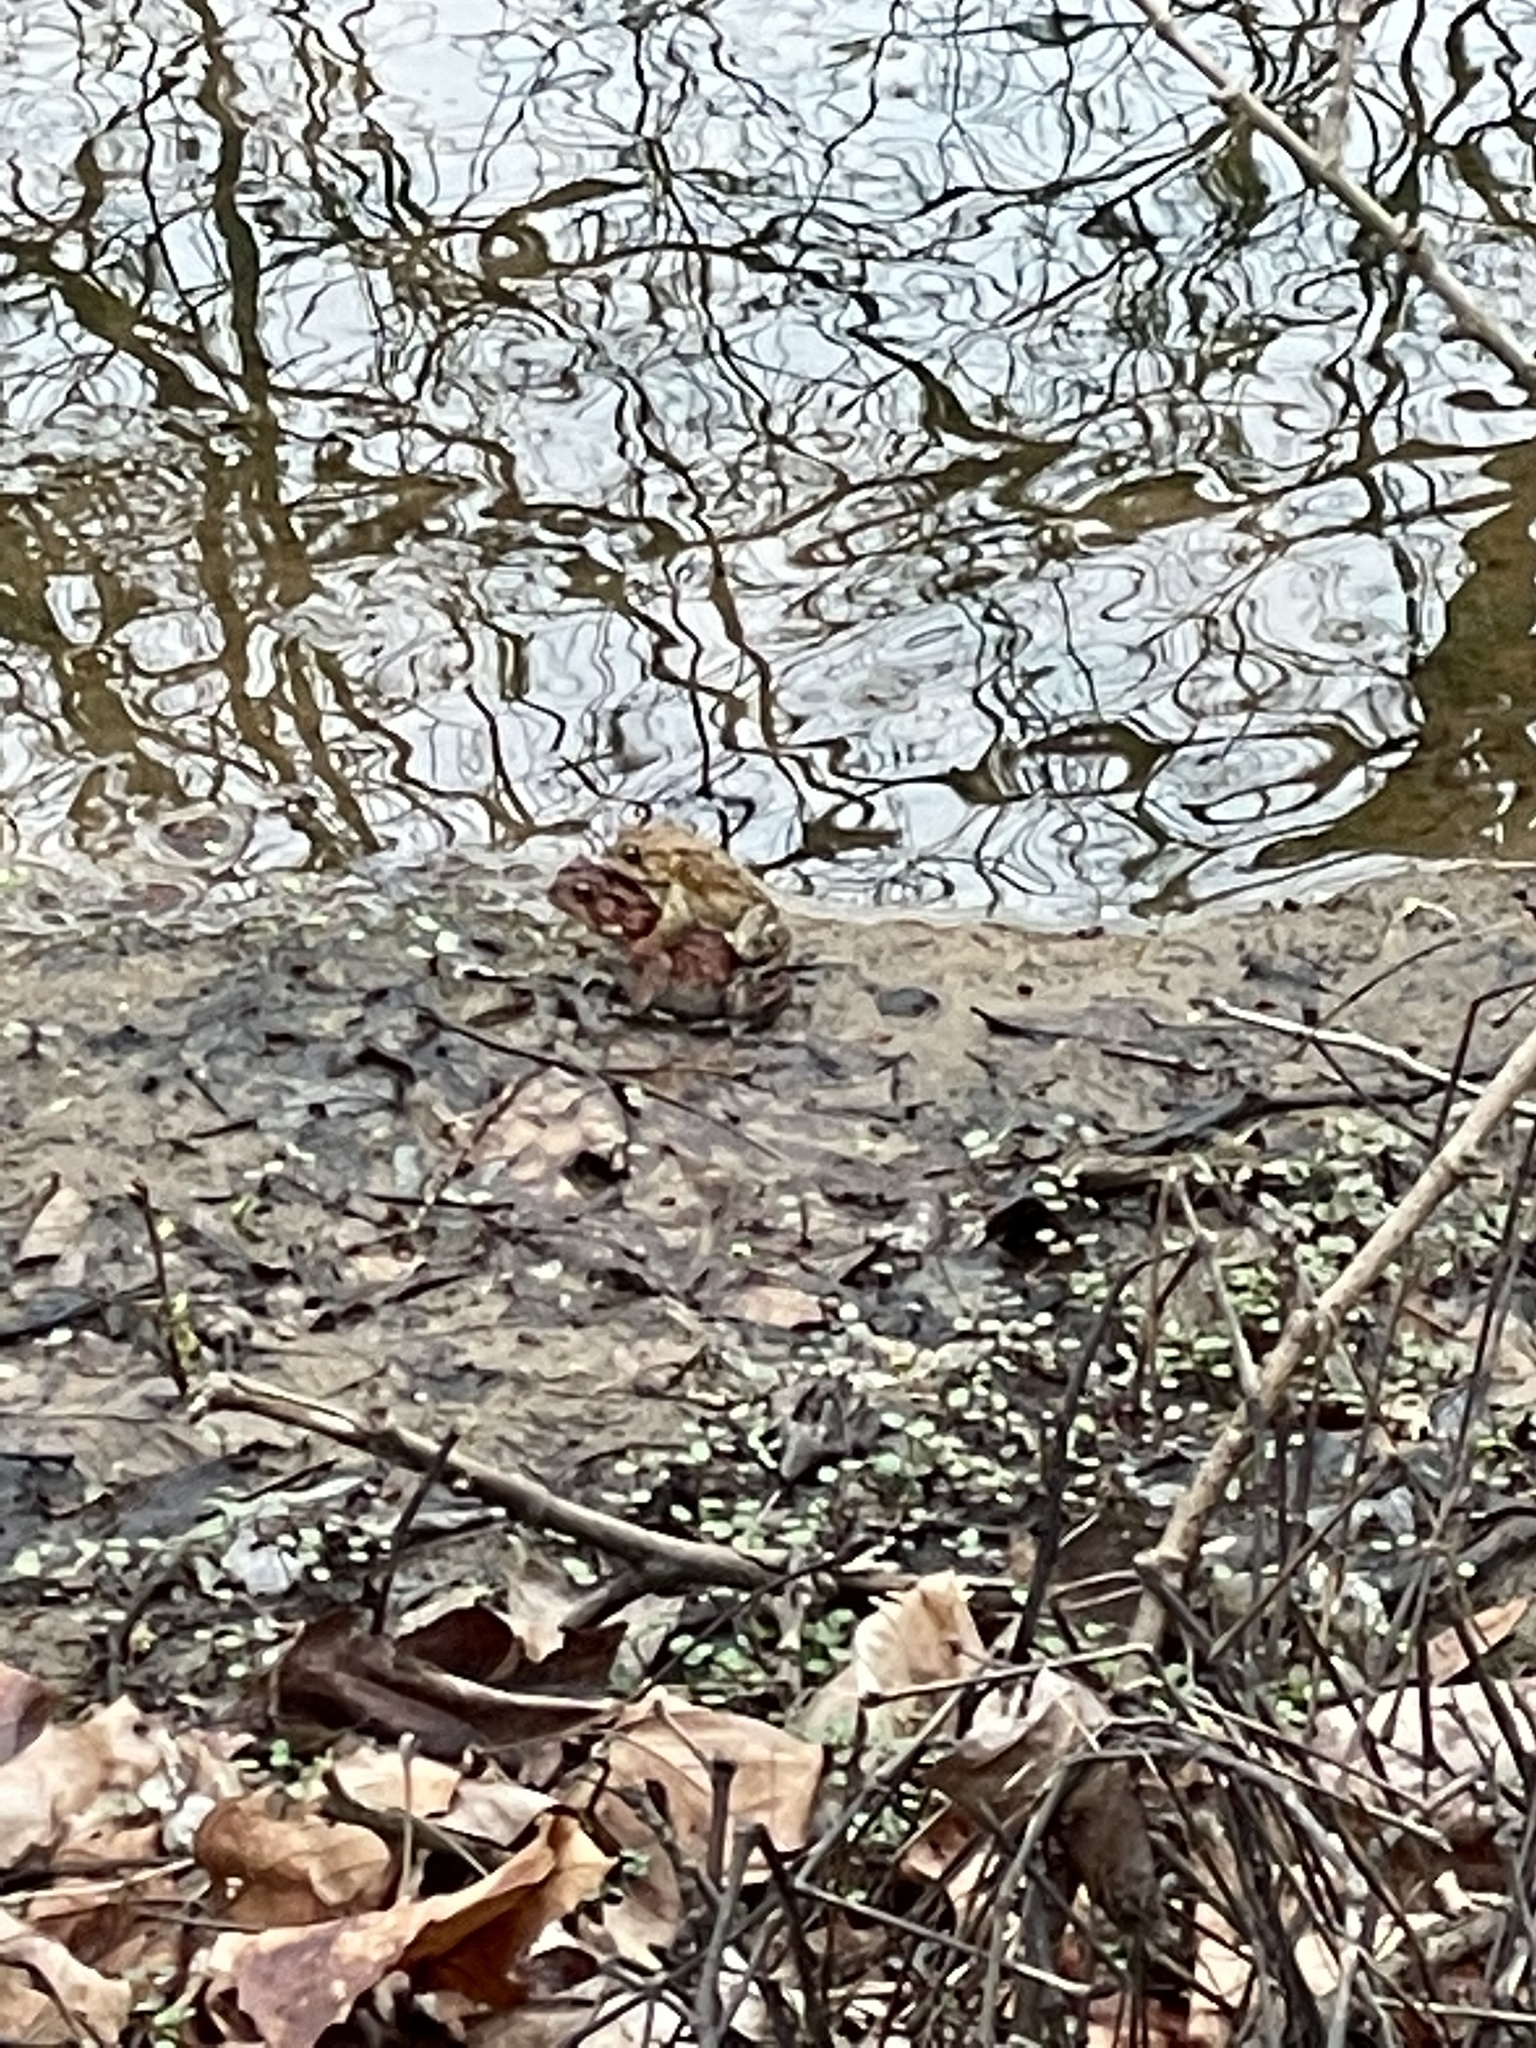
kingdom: Animalia
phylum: Chordata
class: Amphibia
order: Anura
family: Bufonidae
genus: Anaxyrus
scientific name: Anaxyrus americanus
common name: American toad
